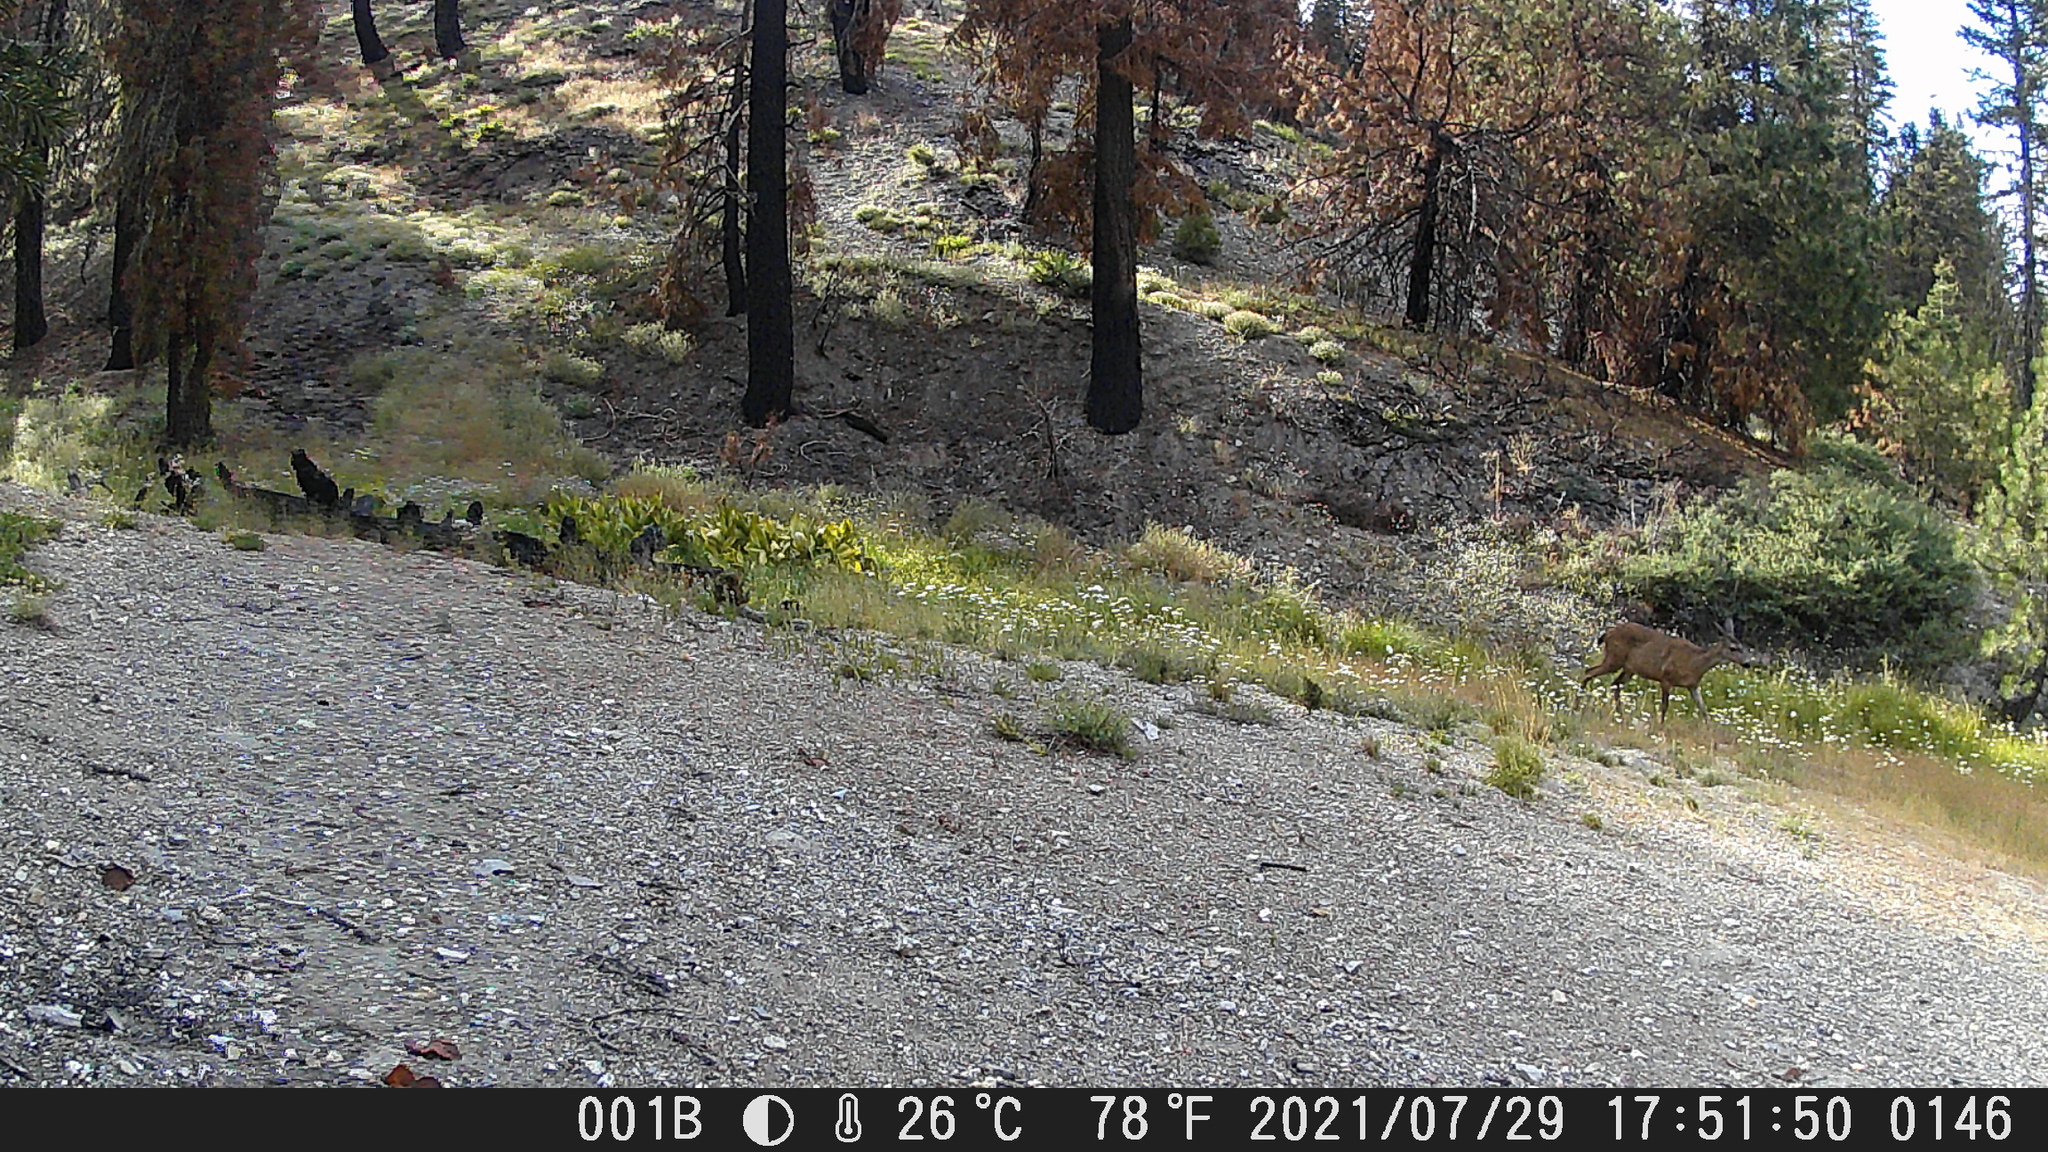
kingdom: Animalia
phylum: Chordata
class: Mammalia
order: Artiodactyla
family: Cervidae
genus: Odocoileus
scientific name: Odocoileus hemionus
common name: Mule deer
